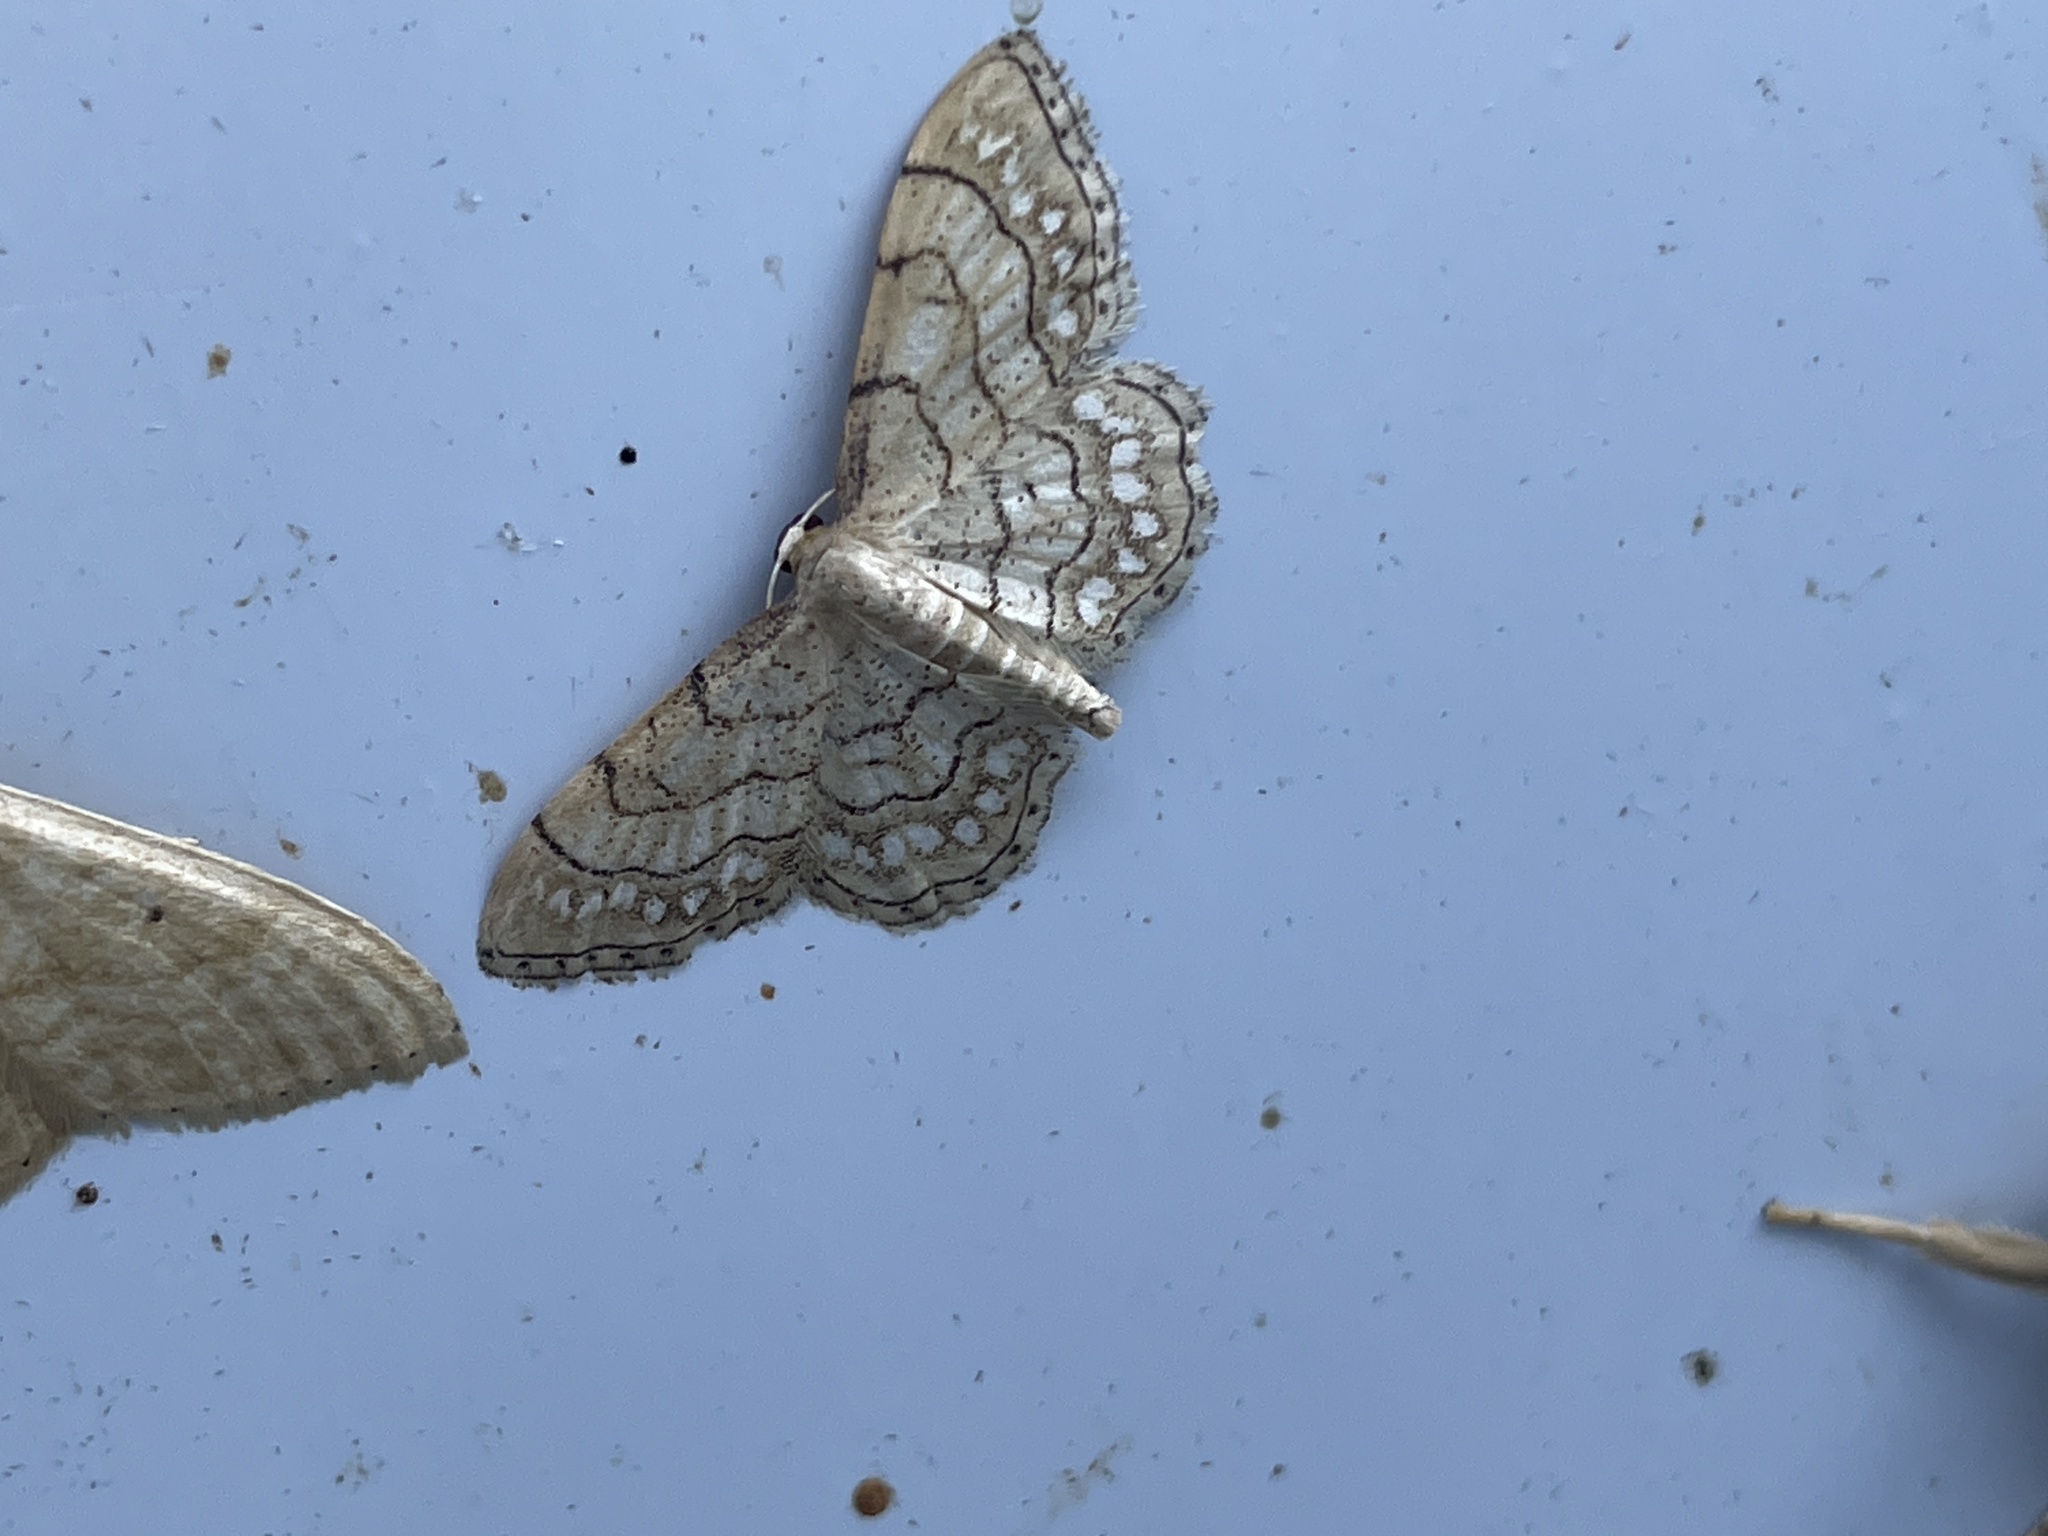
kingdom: Animalia
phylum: Arthropoda
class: Insecta
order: Lepidoptera
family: Geometridae
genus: Idaea
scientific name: Idaea moniliata
